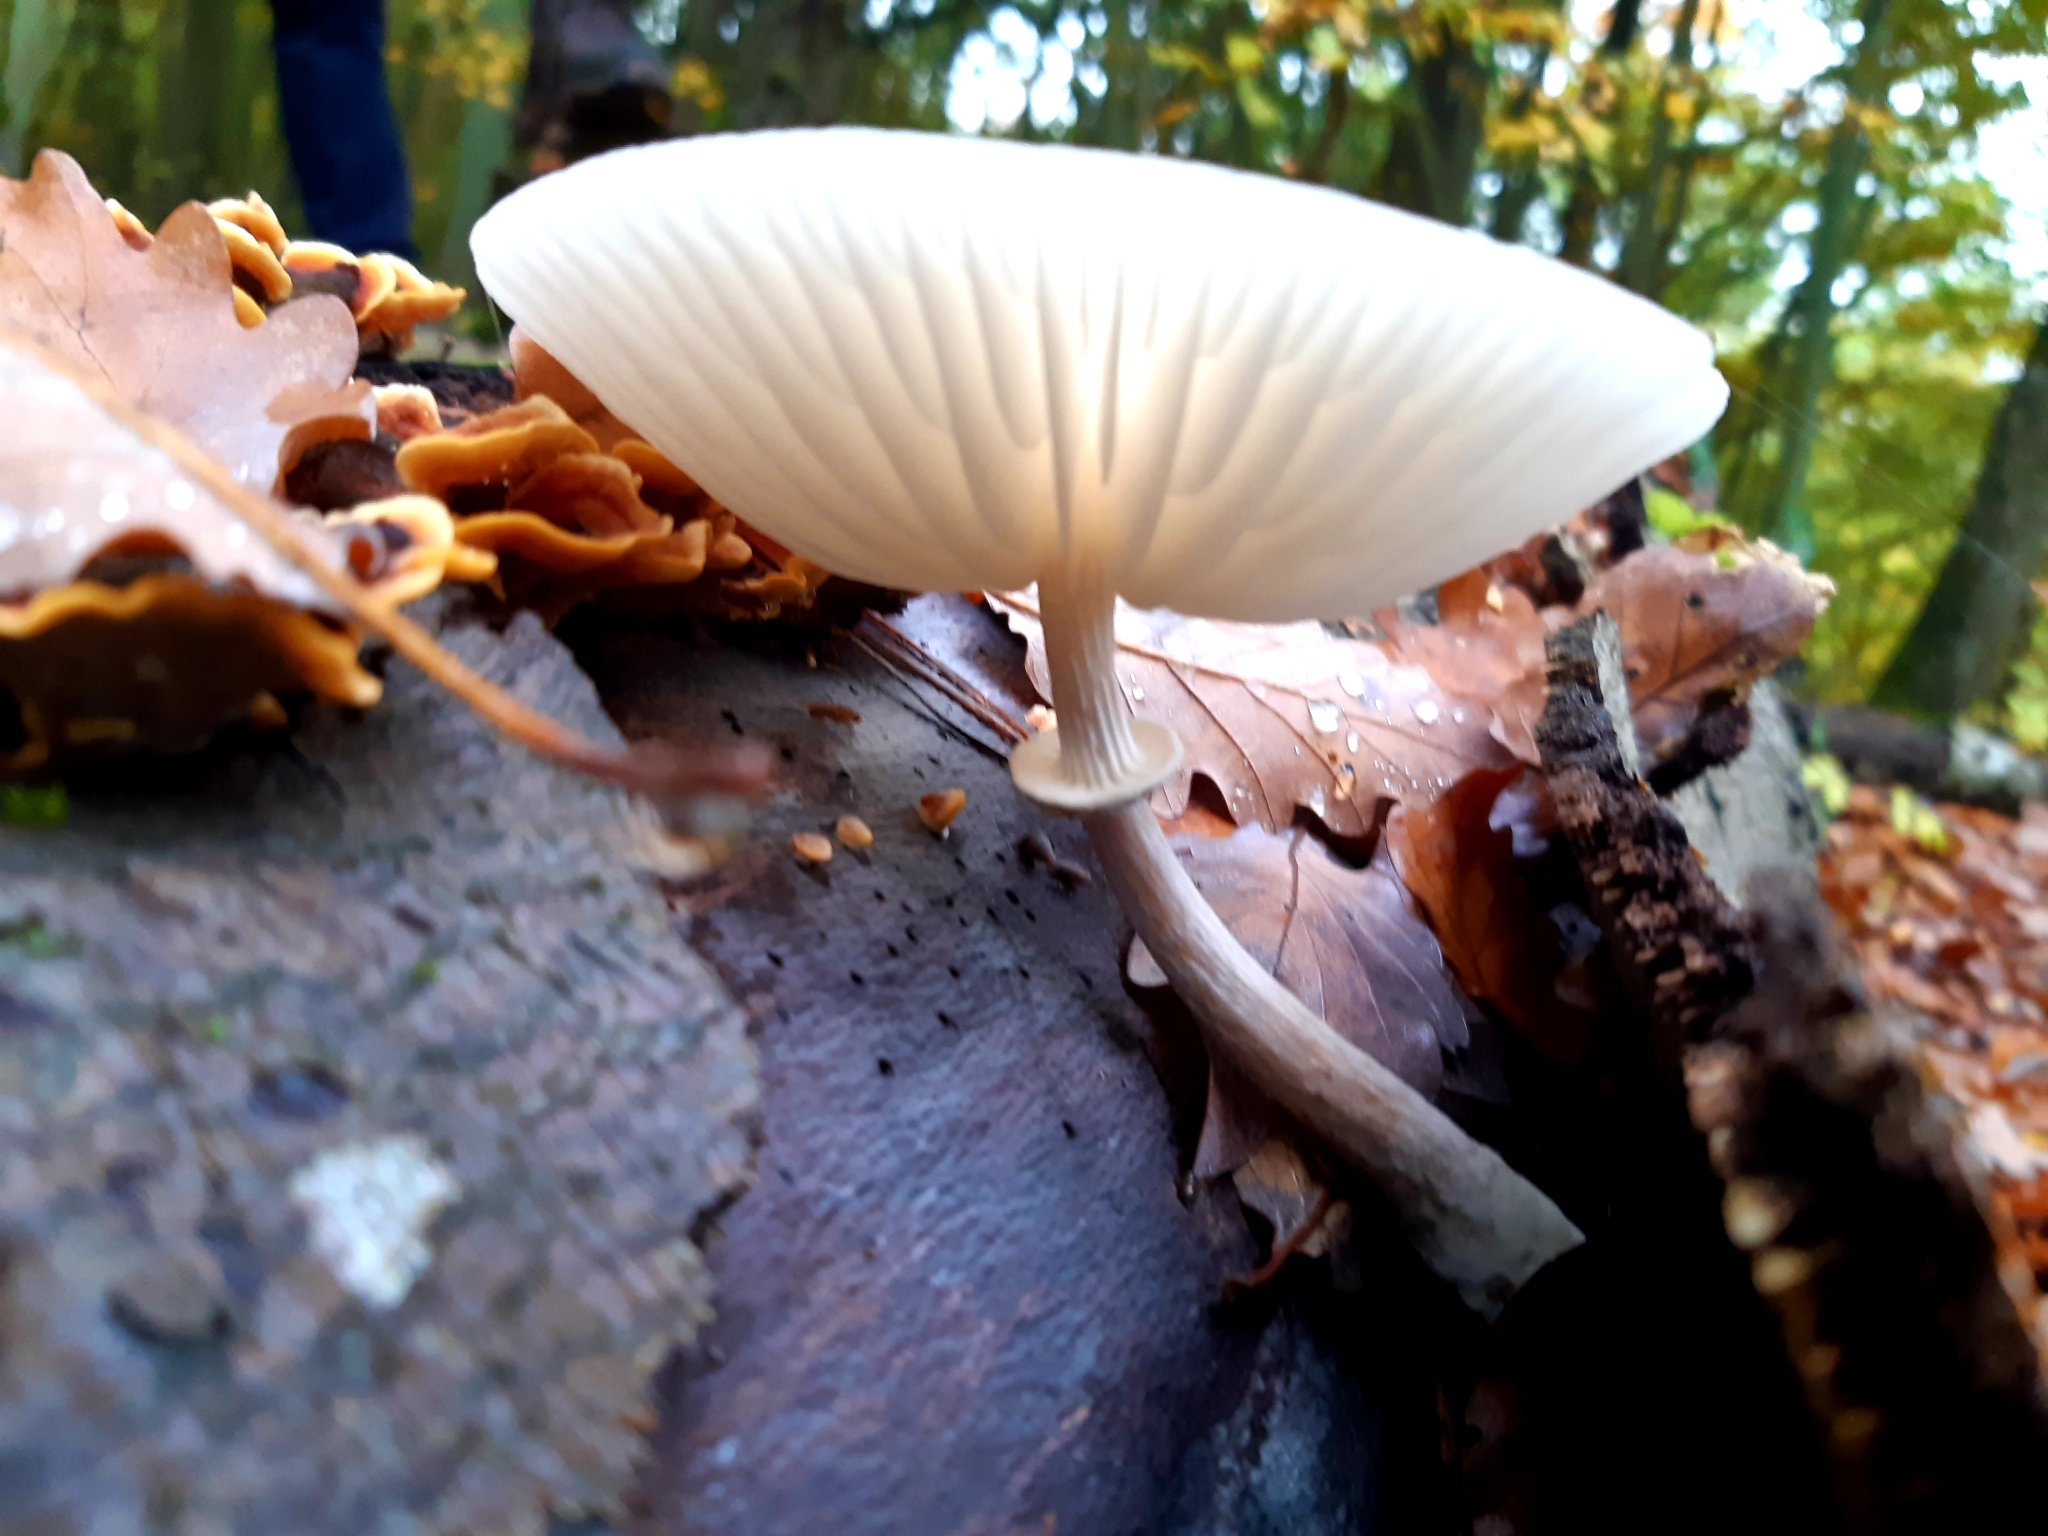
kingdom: Fungi
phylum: Basidiomycota
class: Agaricomycetes
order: Agaricales
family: Physalacriaceae
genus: Mucidula
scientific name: Mucidula mucida
